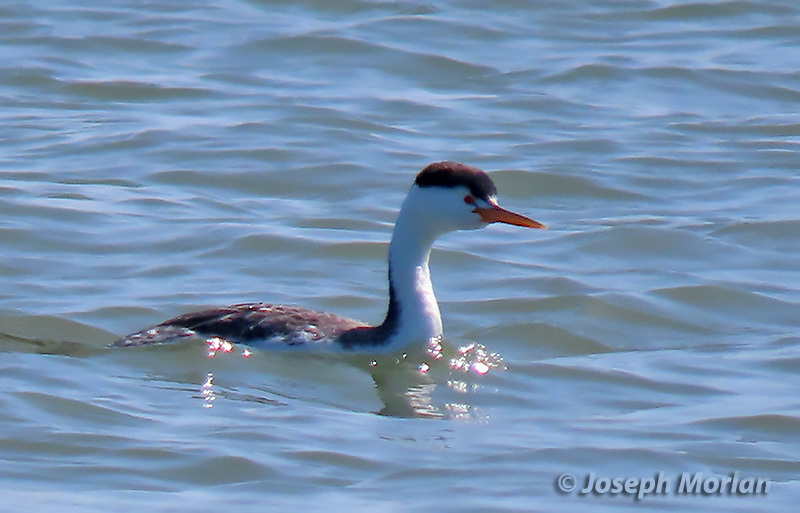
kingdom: Animalia
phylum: Chordata
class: Aves
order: Podicipediformes
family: Podicipedidae
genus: Aechmophorus
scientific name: Aechmophorus clarkii
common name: Clark's grebe
